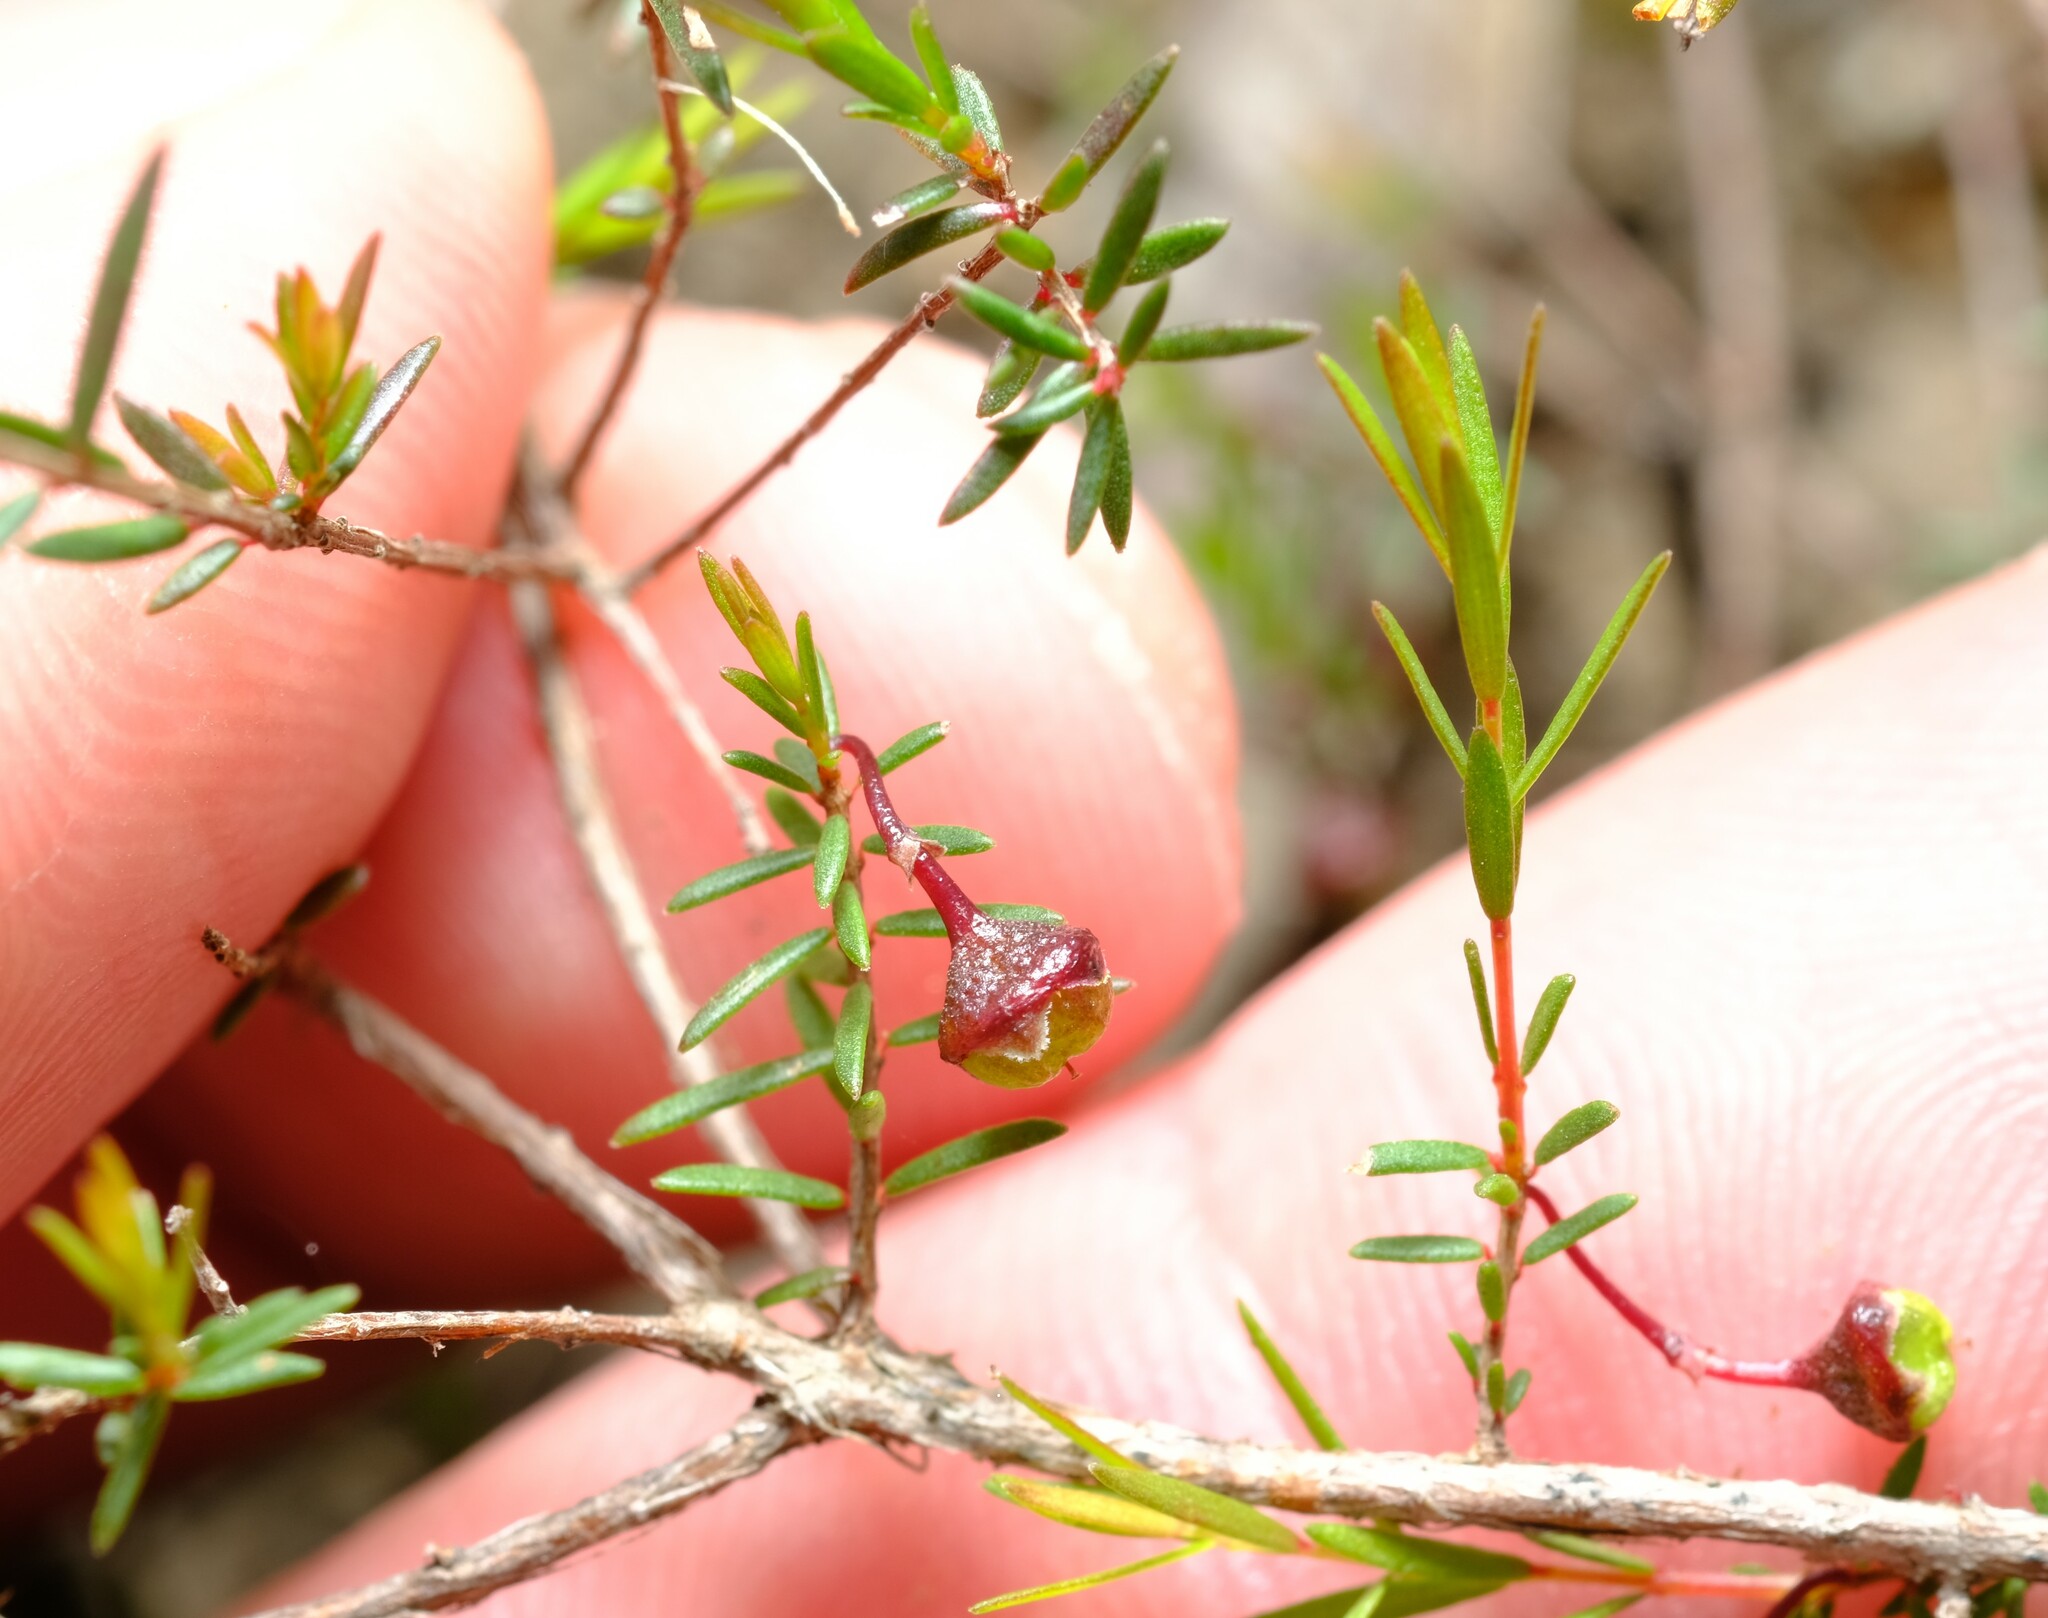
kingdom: Plantae
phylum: Tracheophyta
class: Magnoliopsida
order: Myrtales
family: Myrtaceae
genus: Euryomyrtus
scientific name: Euryomyrtus ramosissima
